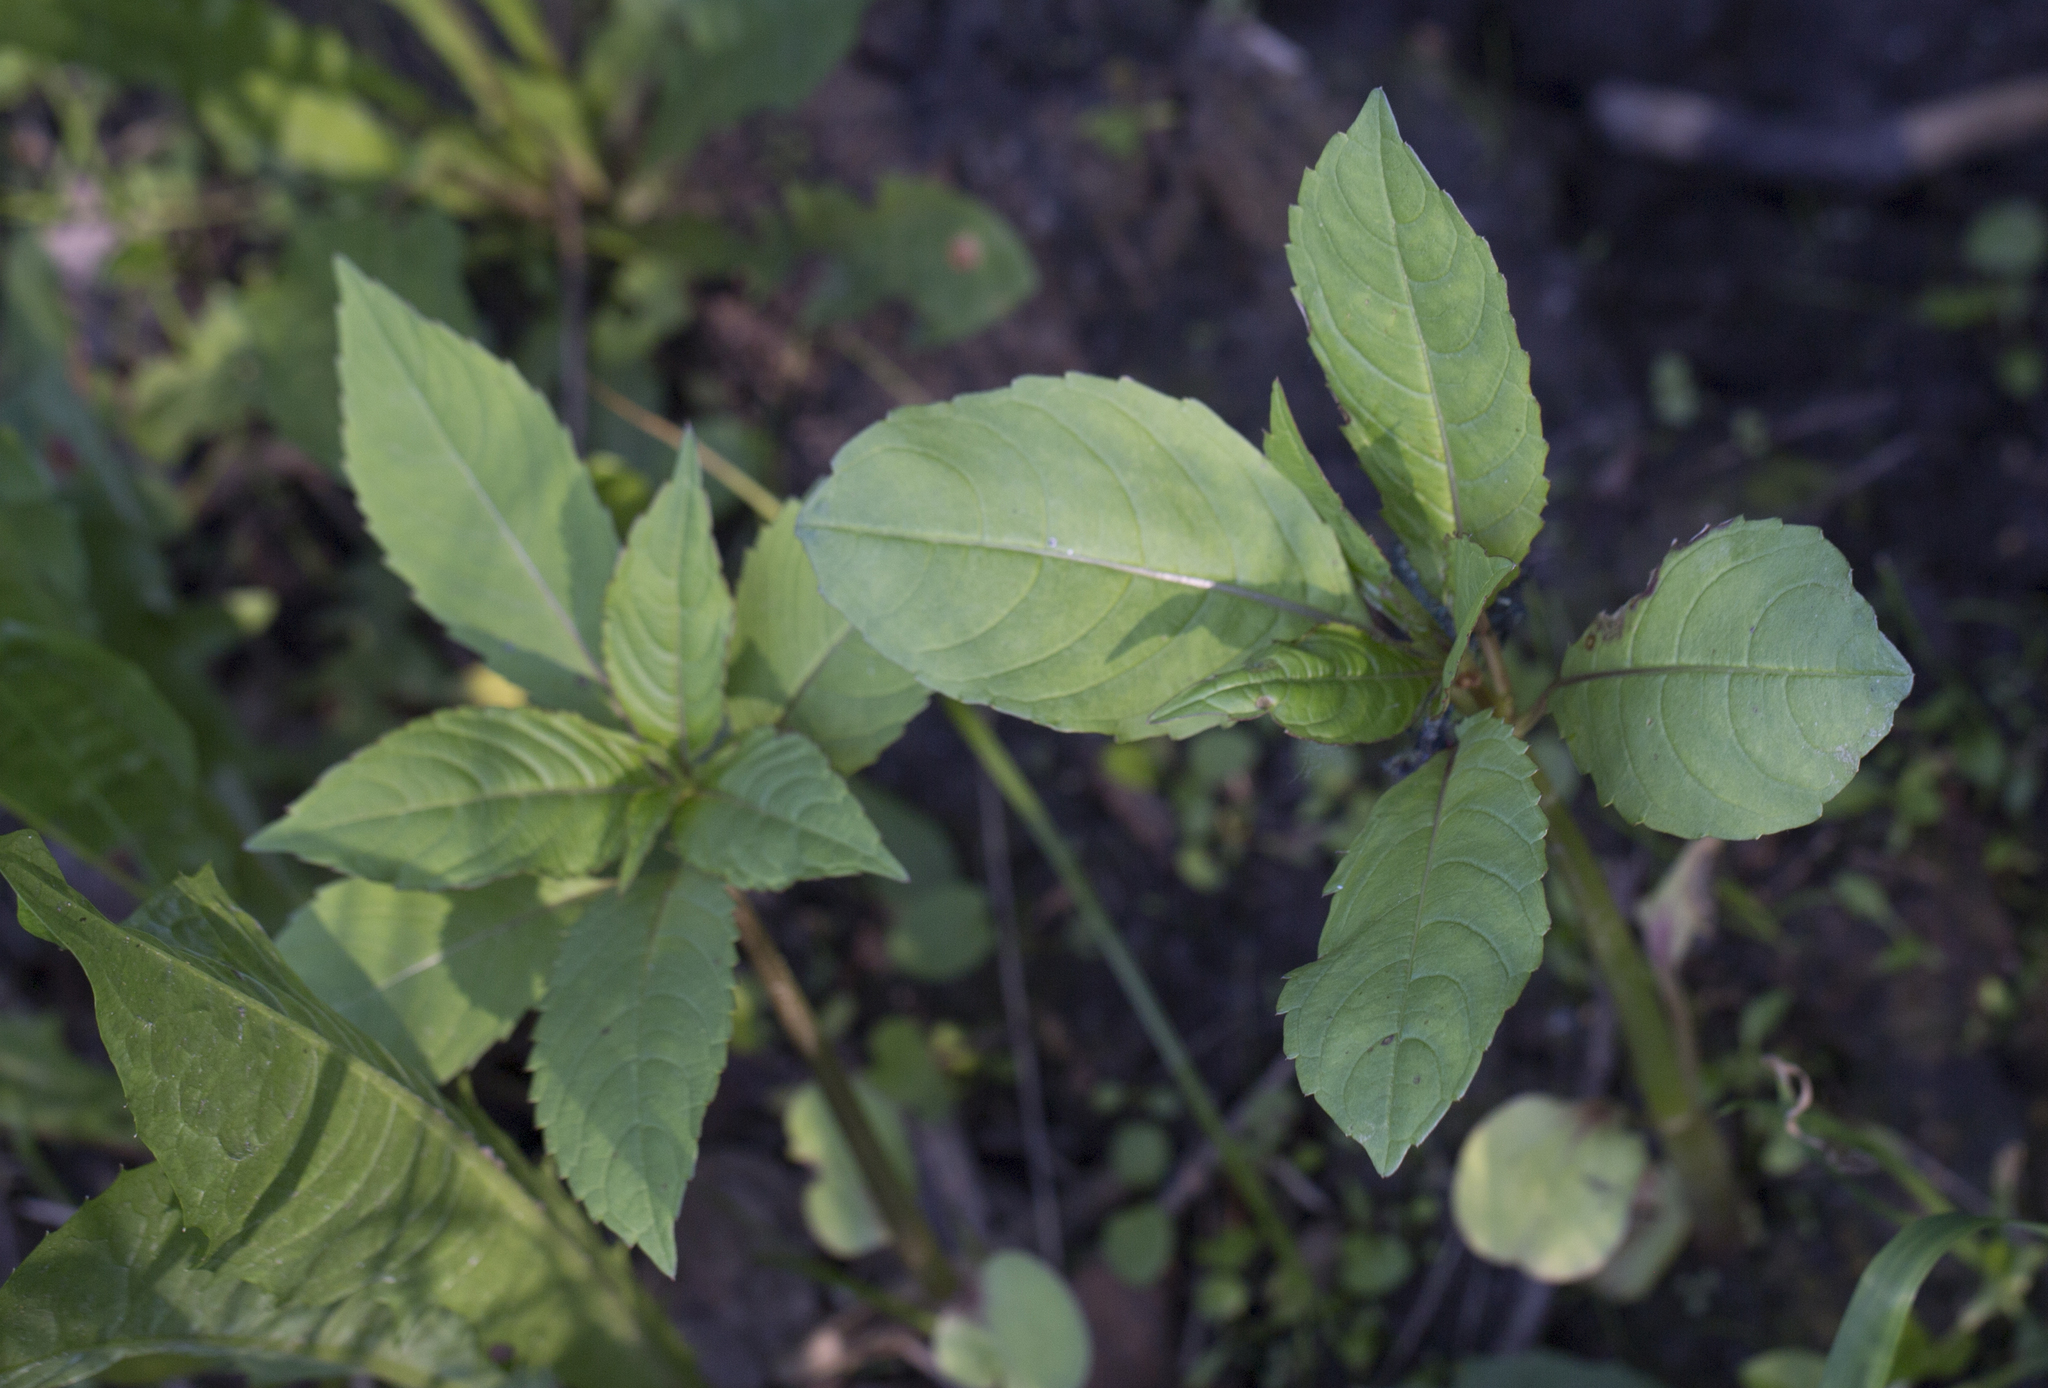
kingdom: Plantae
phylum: Tracheophyta
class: Magnoliopsida
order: Ericales
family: Balsaminaceae
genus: Impatiens
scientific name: Impatiens glandulifera
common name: Himalayan balsam
